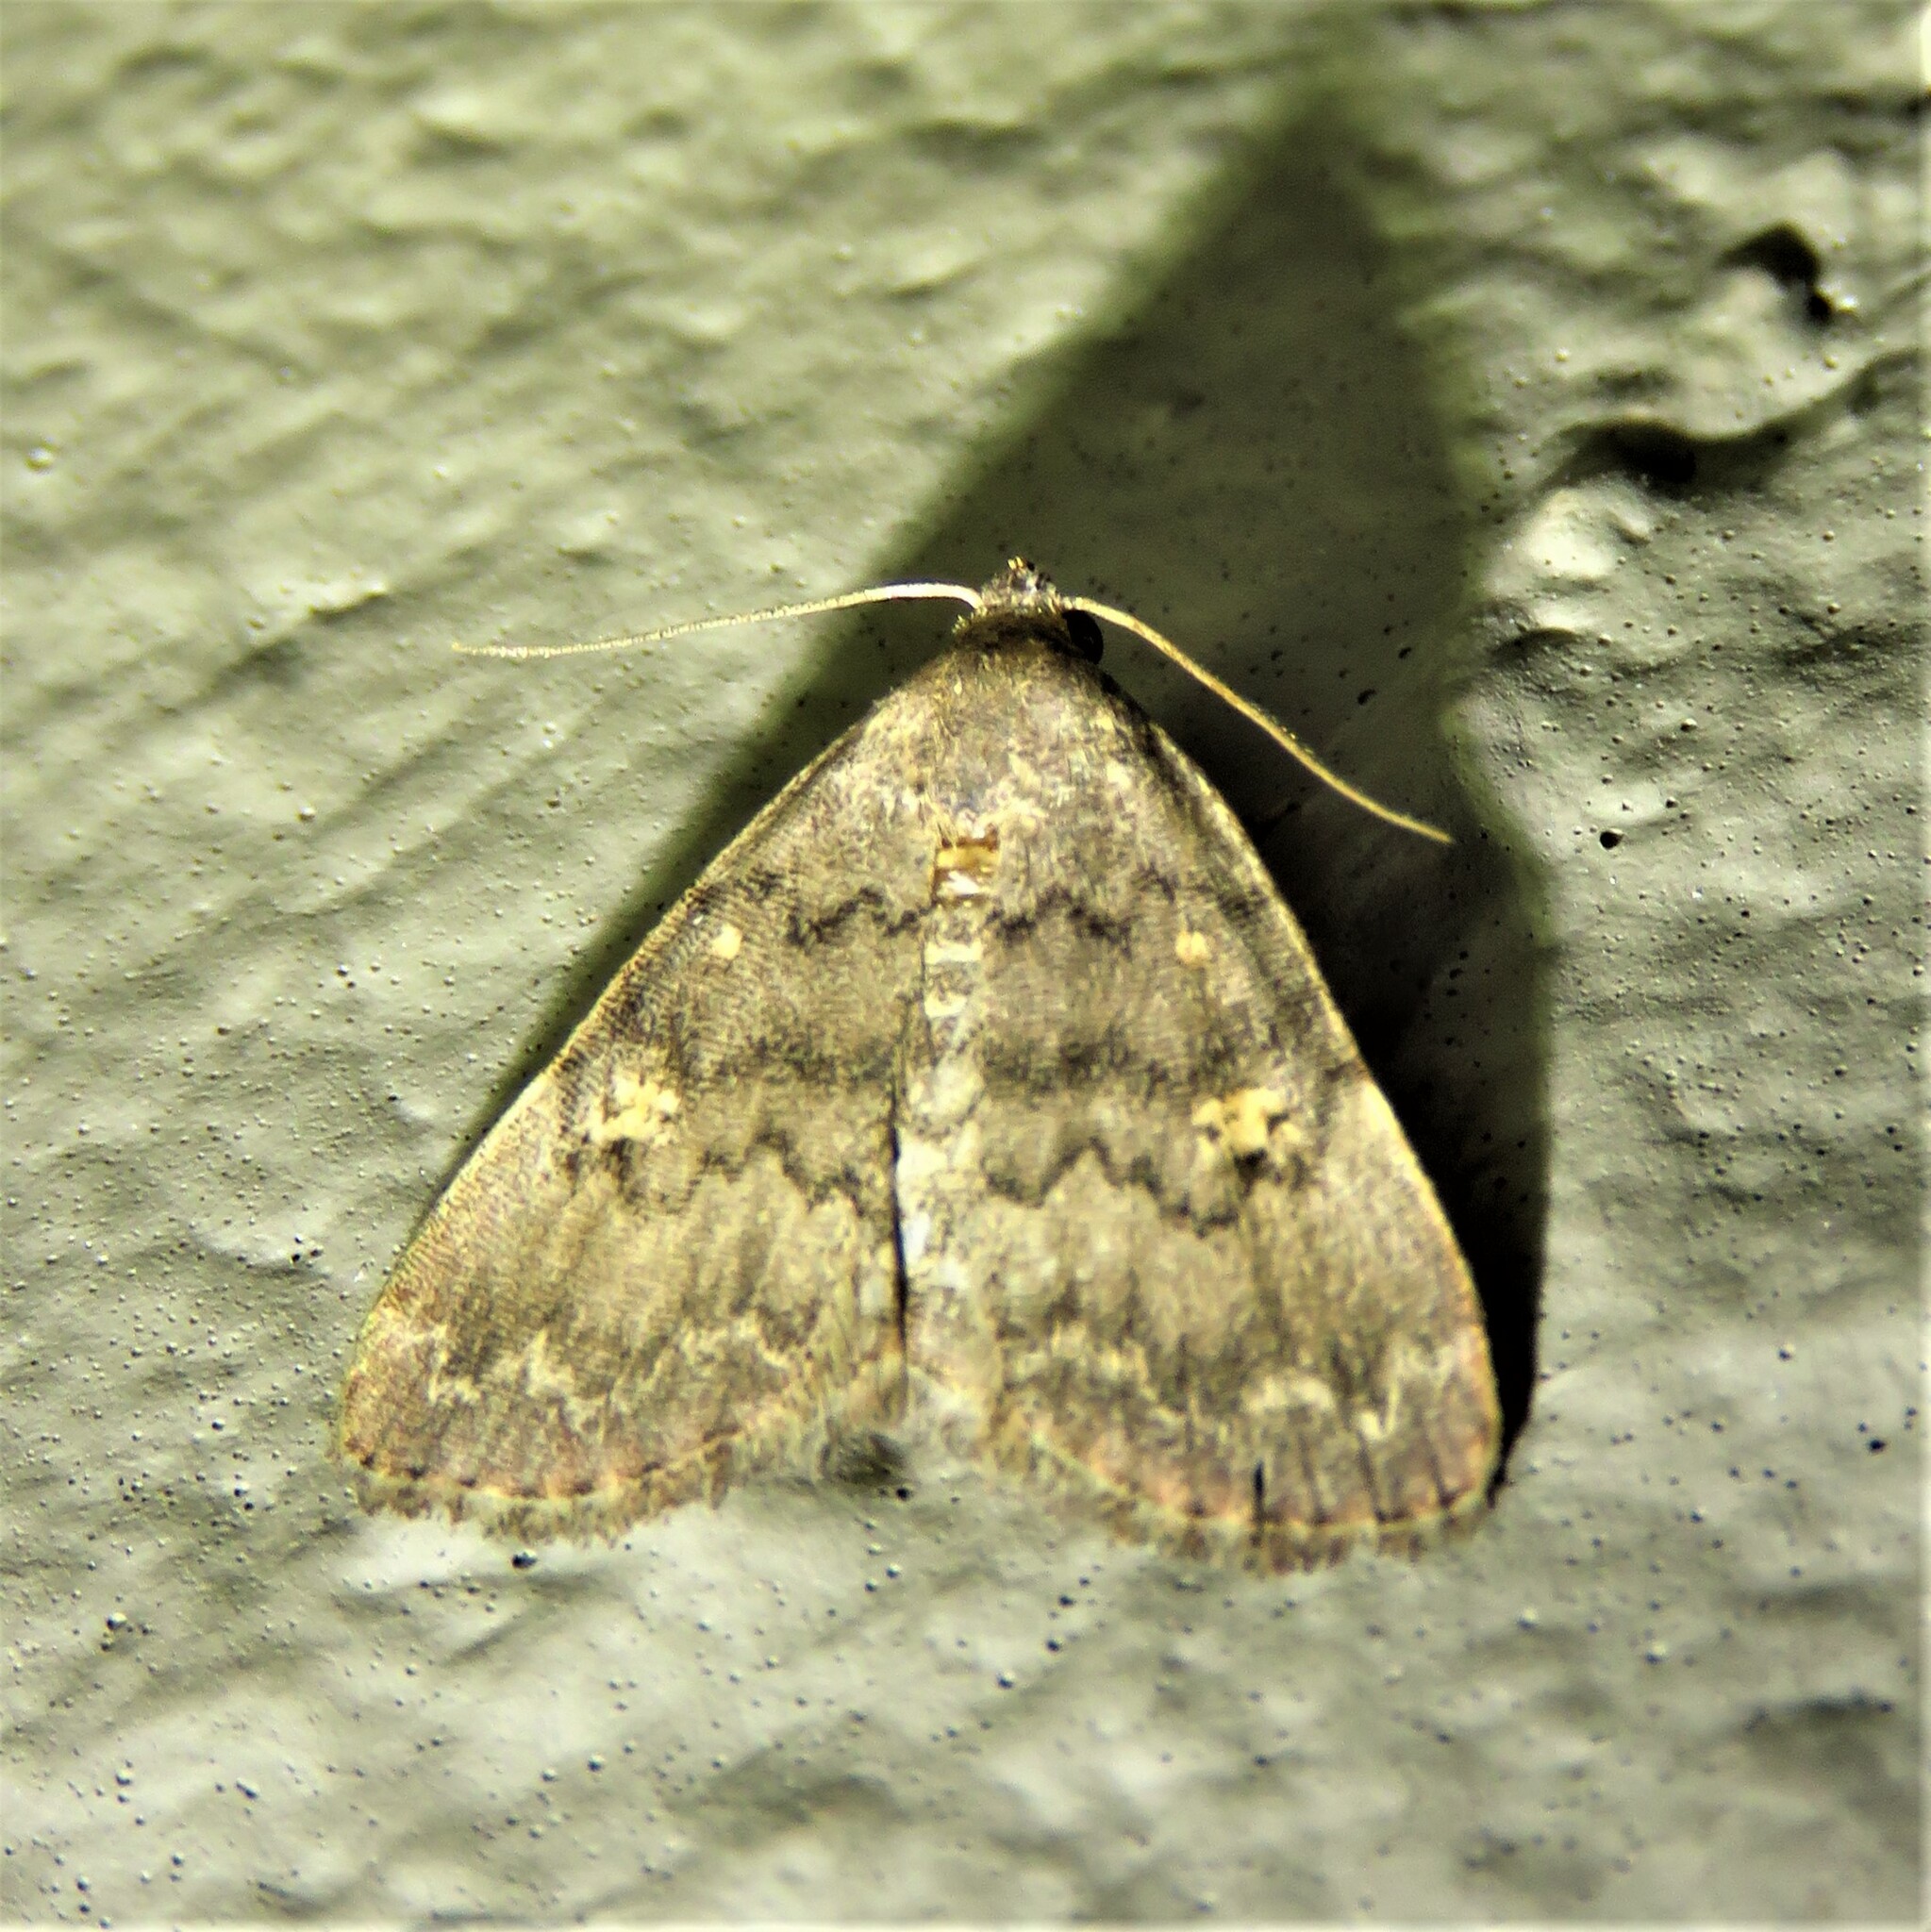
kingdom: Animalia
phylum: Arthropoda
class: Insecta
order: Lepidoptera
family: Erebidae
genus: Idia
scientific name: Idia aemula
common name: Common idia moth
